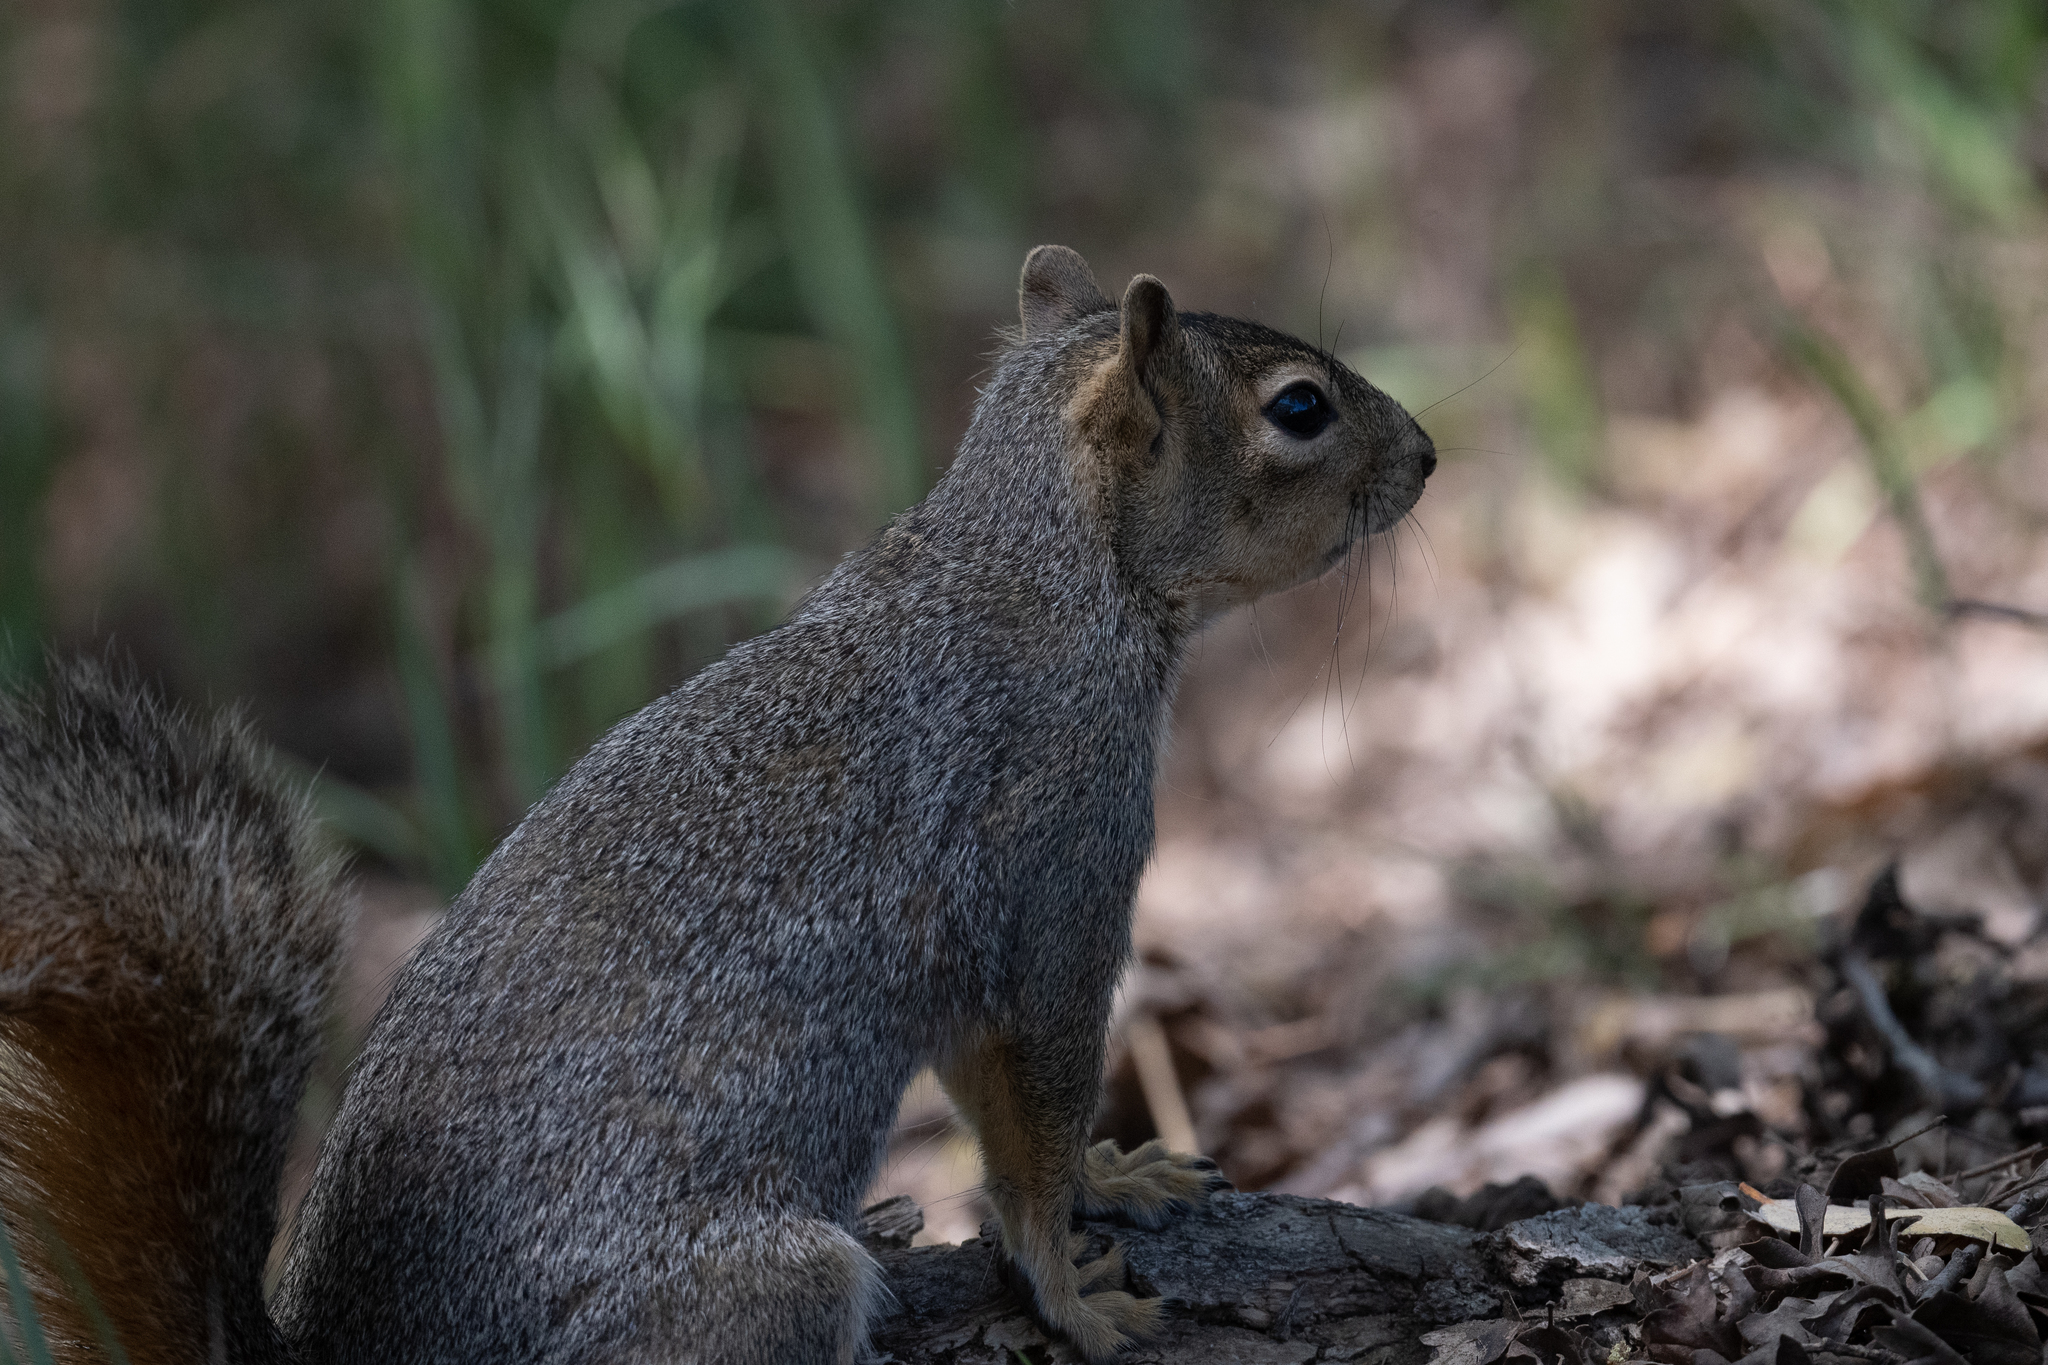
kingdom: Animalia
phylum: Chordata
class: Mammalia
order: Rodentia
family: Sciuridae
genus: Sciurus
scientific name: Sciurus carolinensis
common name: Eastern gray squirrel
